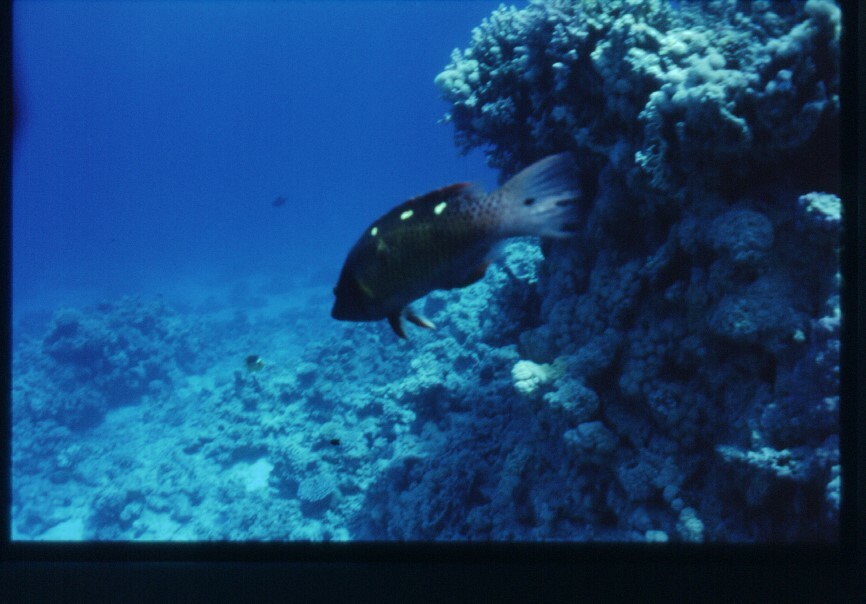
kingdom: Animalia
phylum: Chordata
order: Perciformes
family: Labridae
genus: Bodianus
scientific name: Bodianus diana
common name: Diana's hogfish
